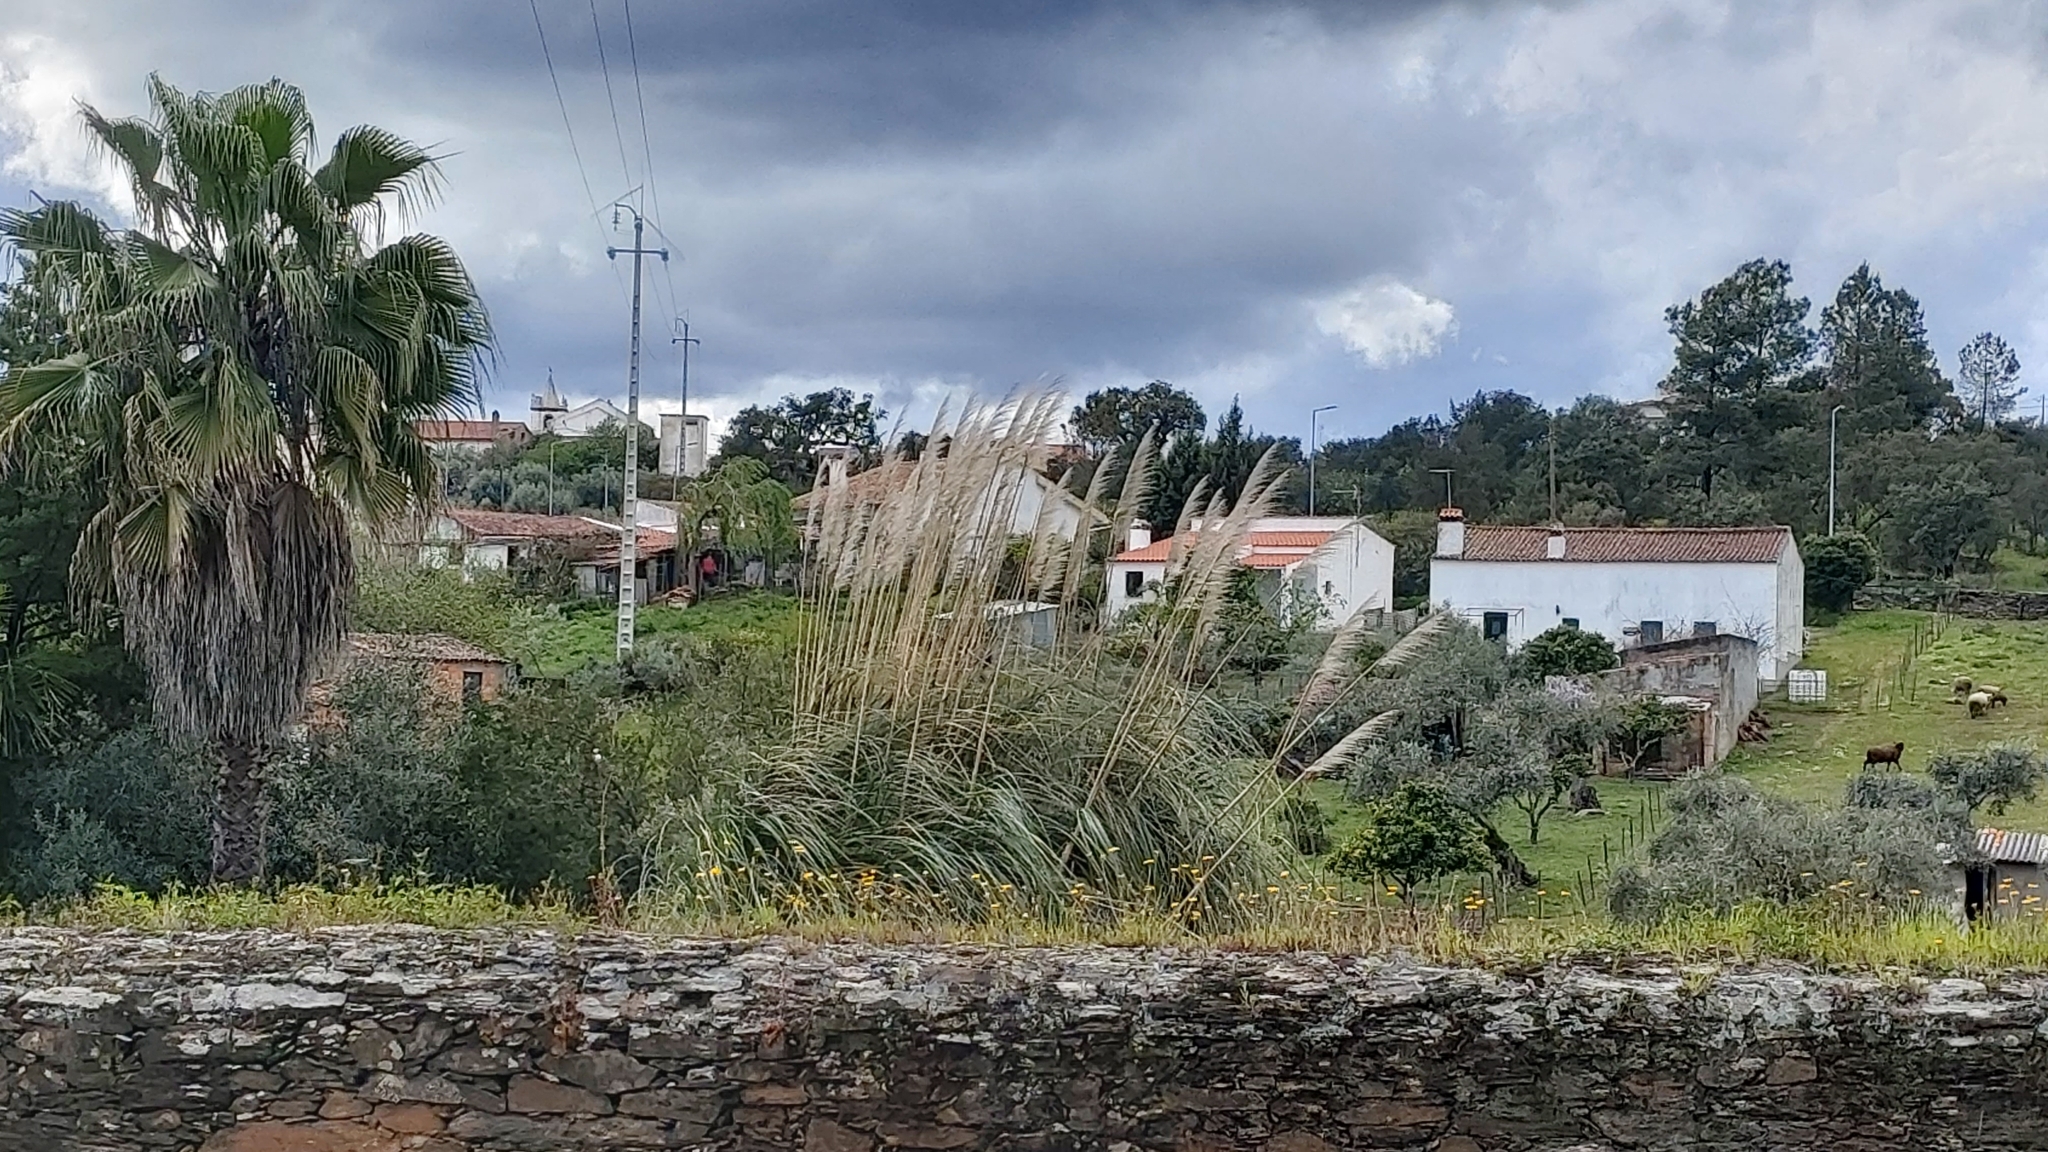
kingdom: Plantae
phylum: Tracheophyta
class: Liliopsida
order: Poales
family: Poaceae
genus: Cortaderia
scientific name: Cortaderia selloana
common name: Uruguayan pampas grass
